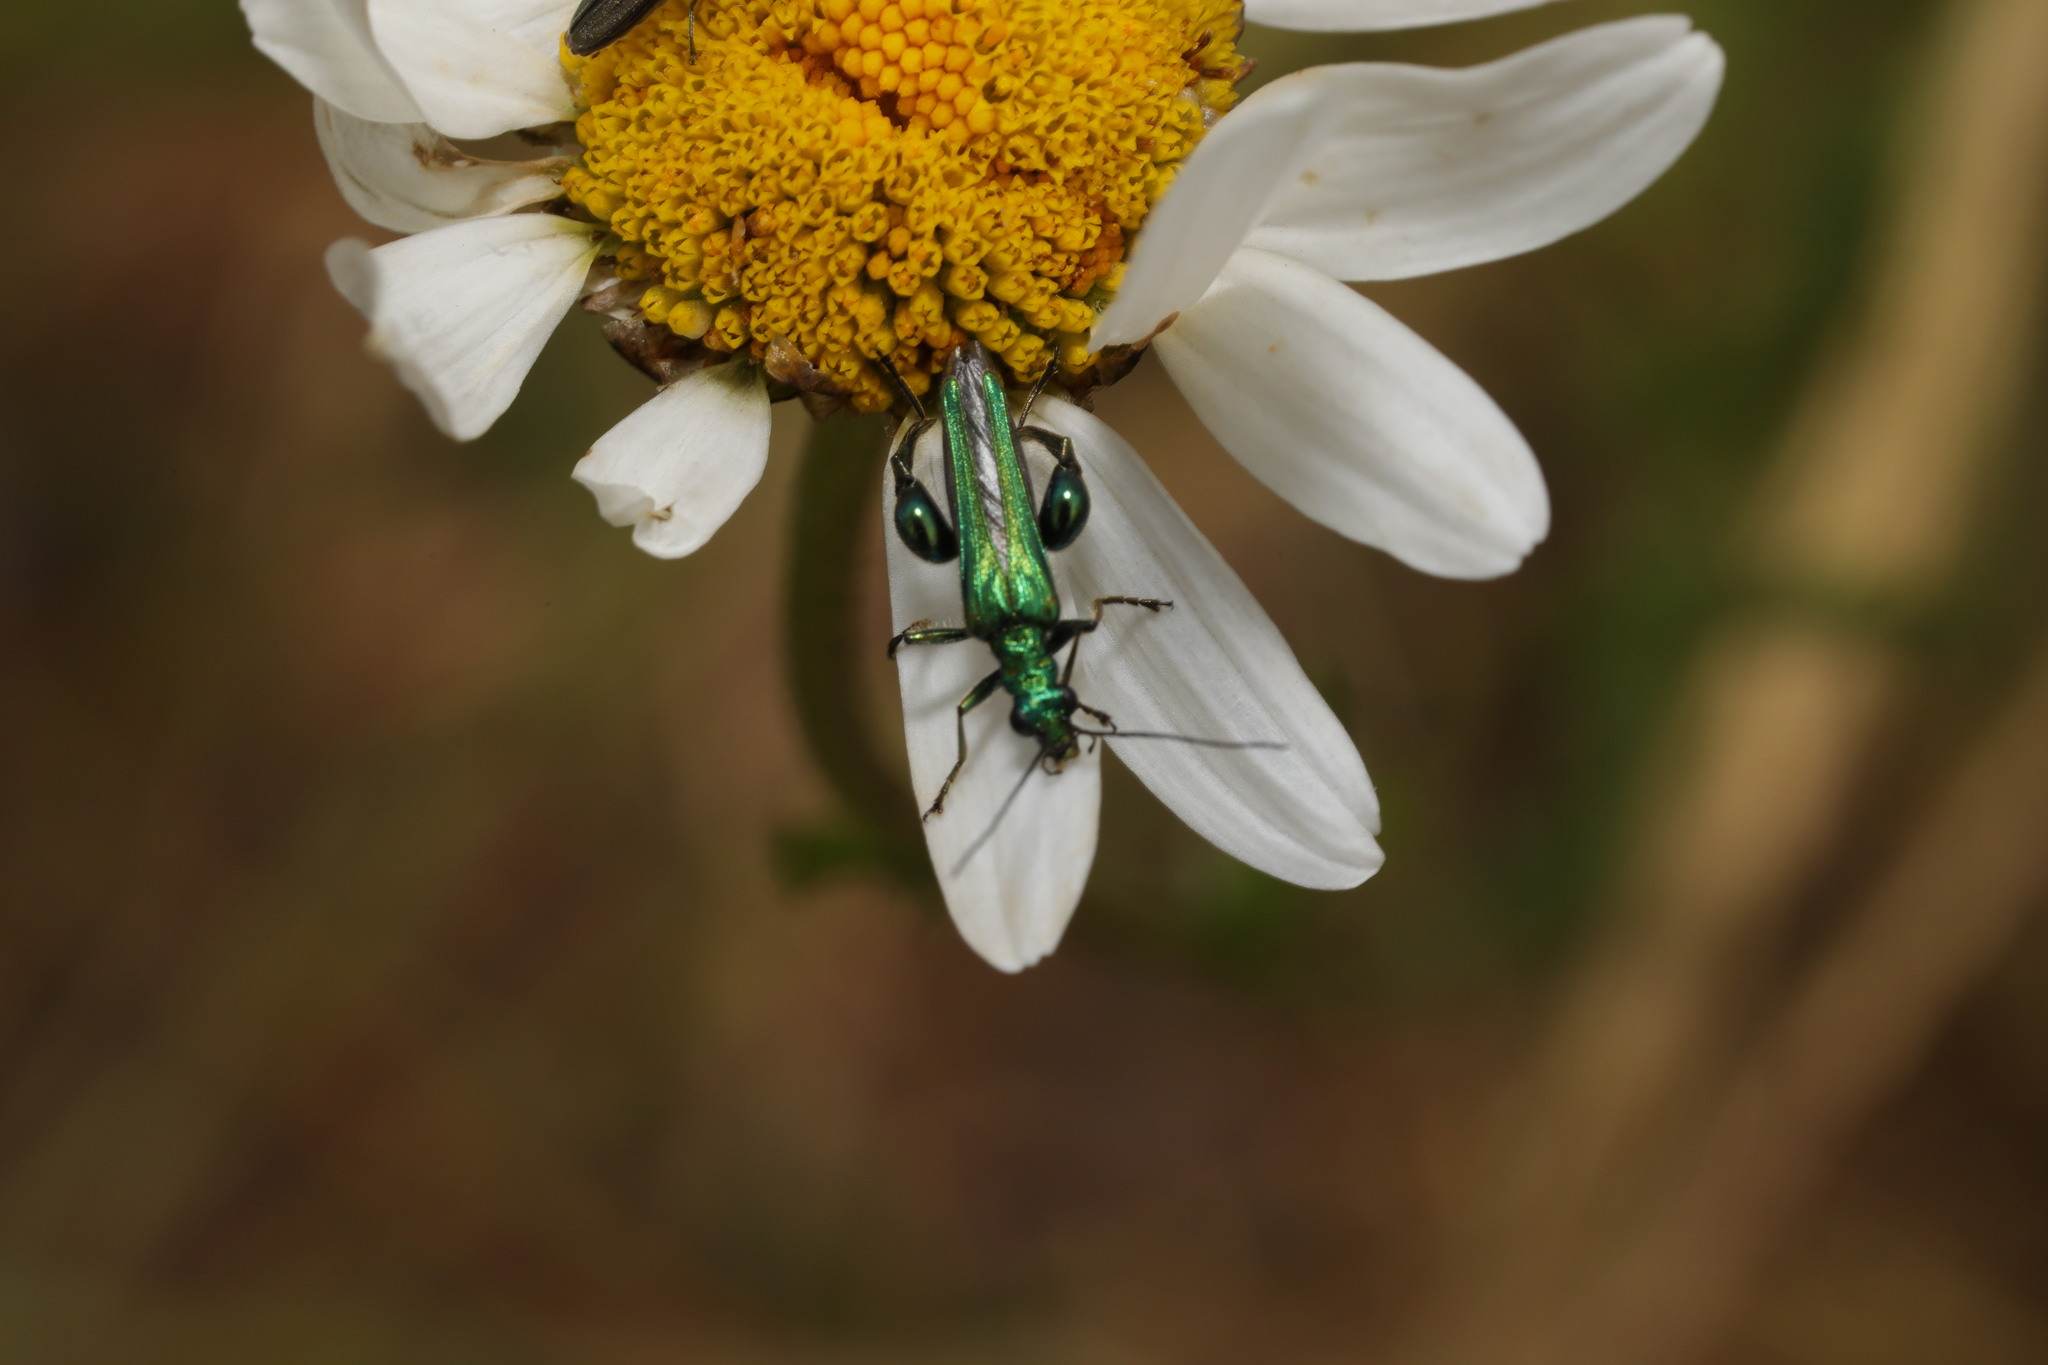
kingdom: Animalia
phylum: Arthropoda
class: Insecta
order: Coleoptera
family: Oedemeridae
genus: Oedemera
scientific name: Oedemera nobilis
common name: Swollen-thighed beetle
